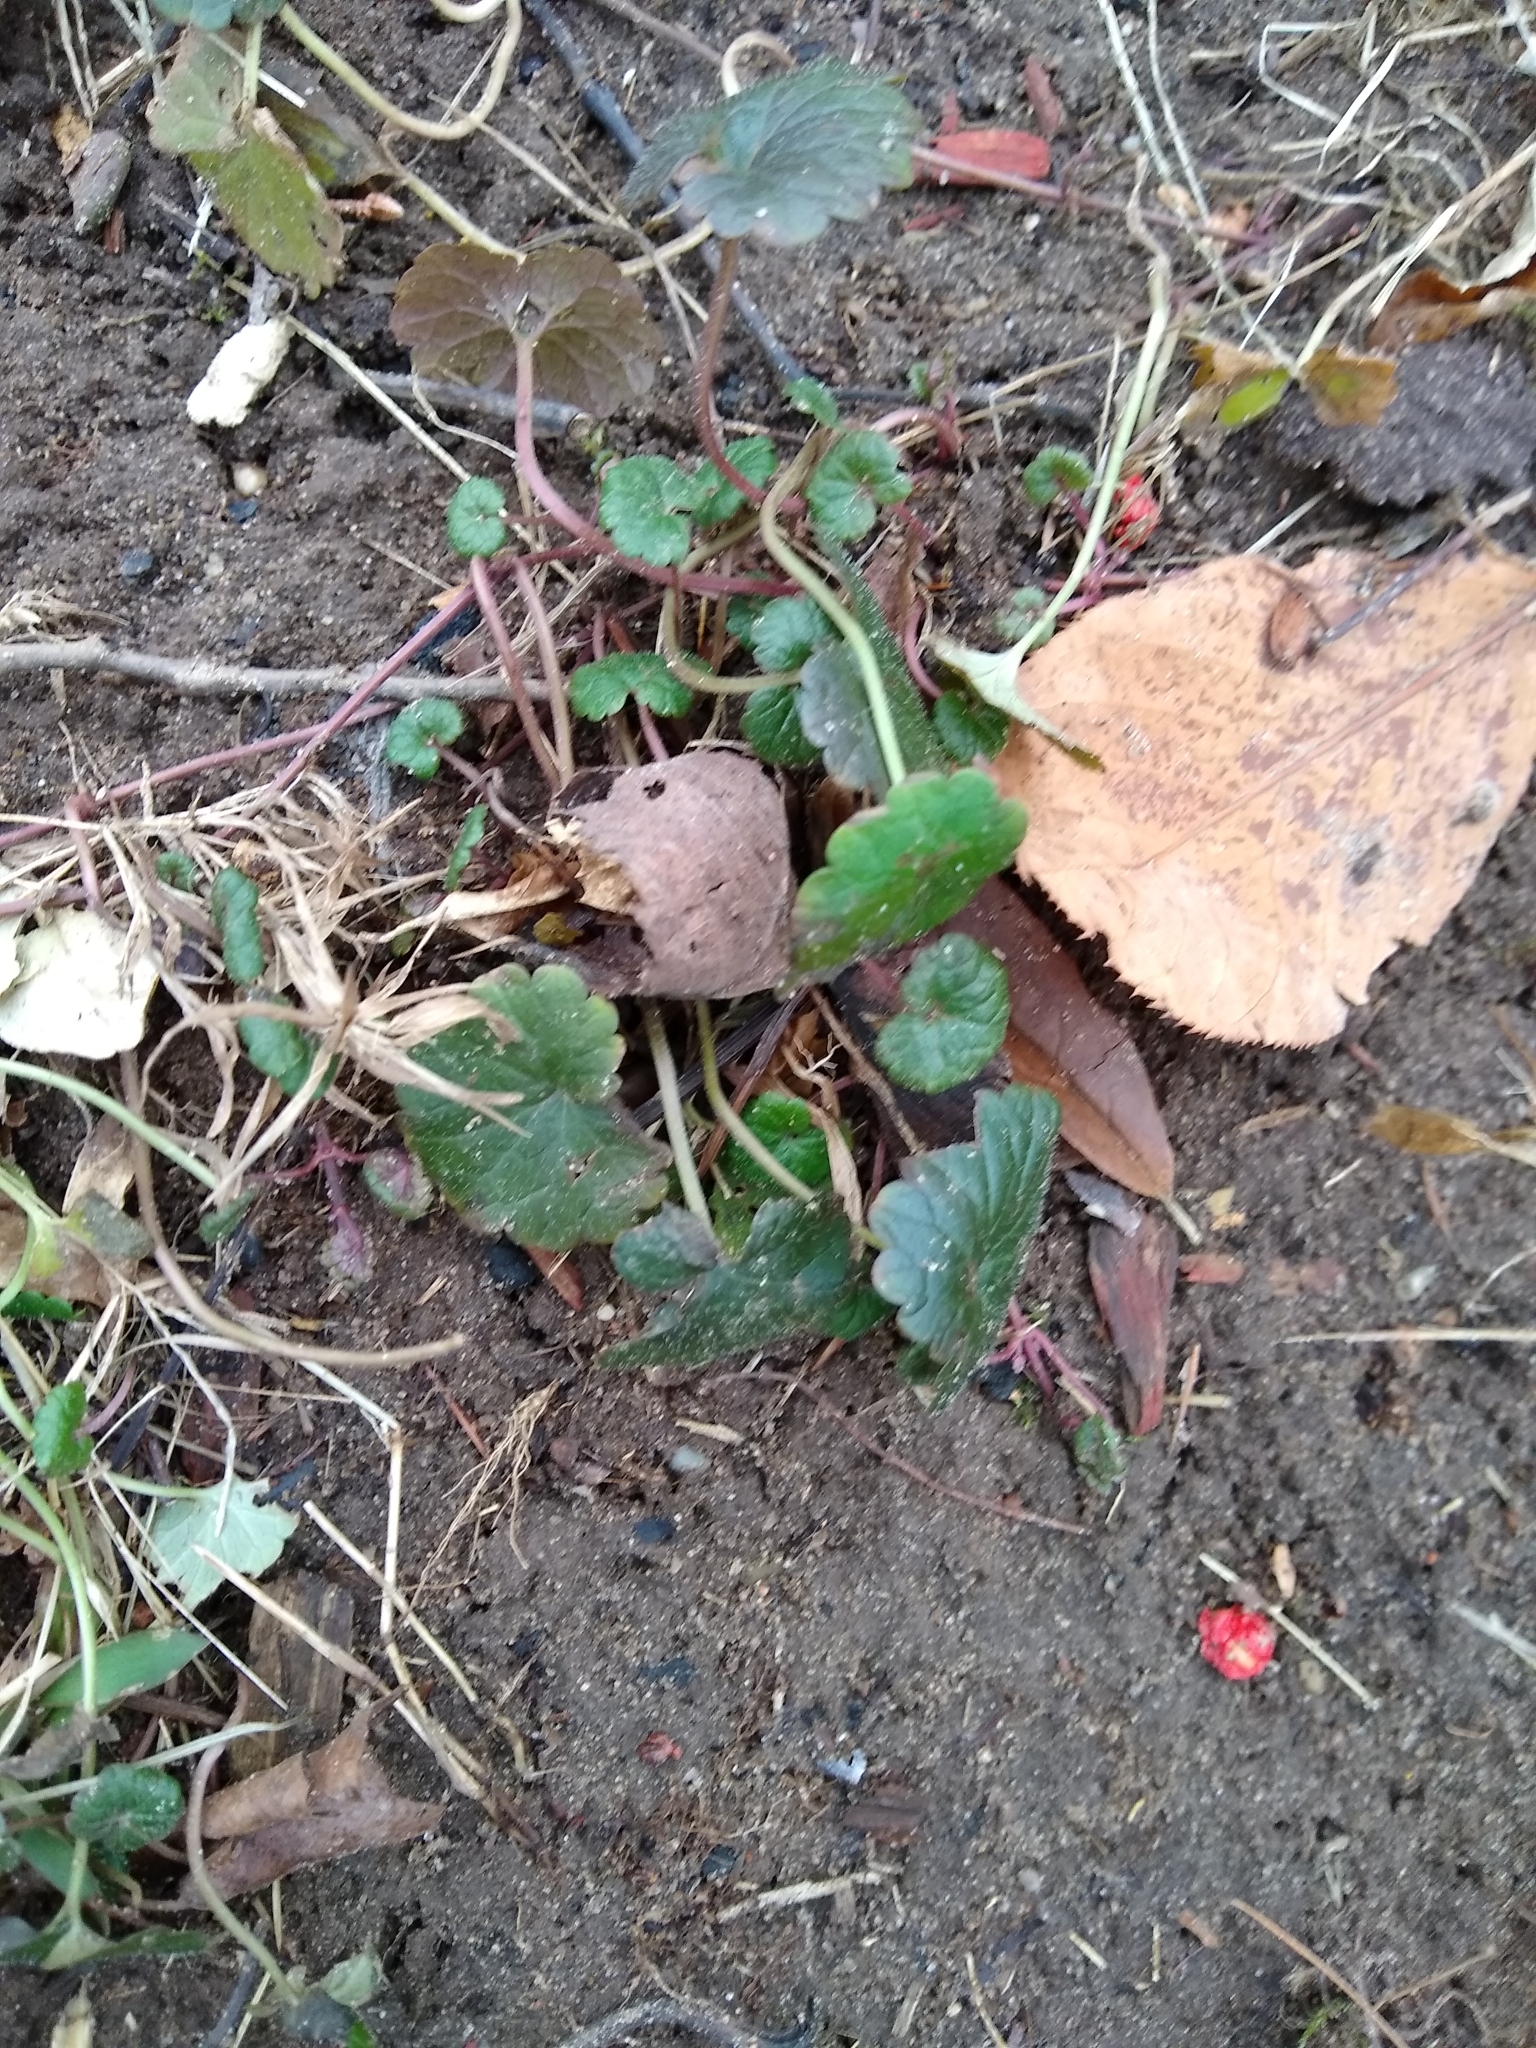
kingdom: Plantae
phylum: Tracheophyta
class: Magnoliopsida
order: Lamiales
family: Lamiaceae
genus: Glechoma
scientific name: Glechoma hederacea
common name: Ground ivy
